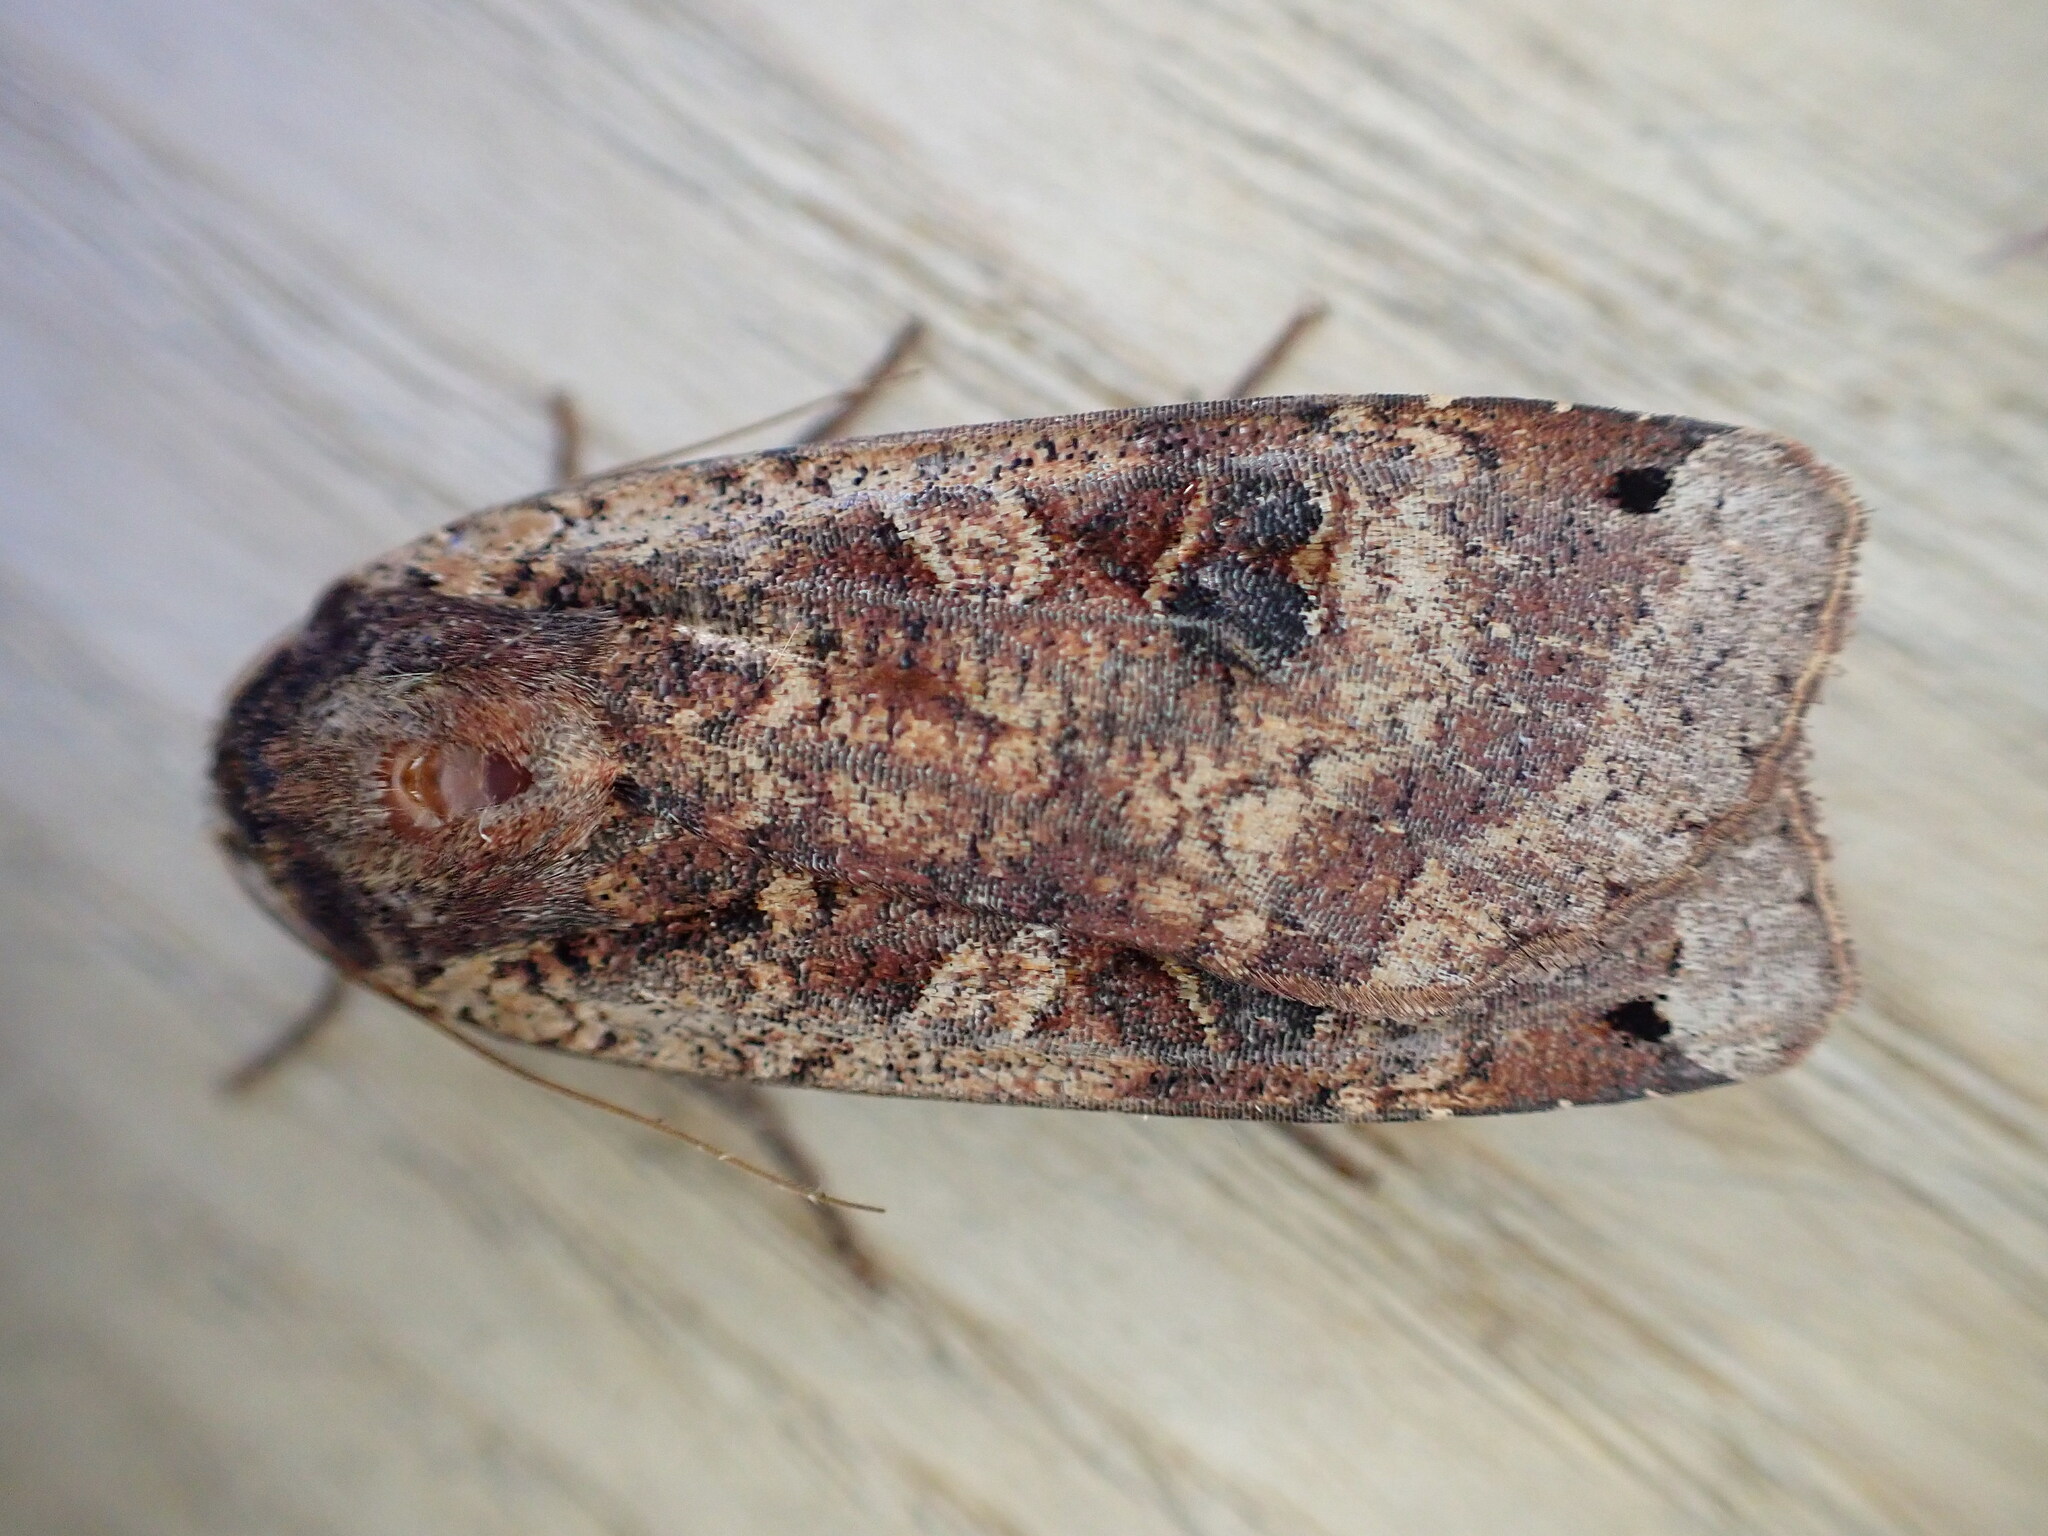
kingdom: Animalia
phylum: Arthropoda
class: Insecta
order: Lepidoptera
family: Noctuidae
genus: Noctua
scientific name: Noctua pronuba
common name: Large yellow underwing
